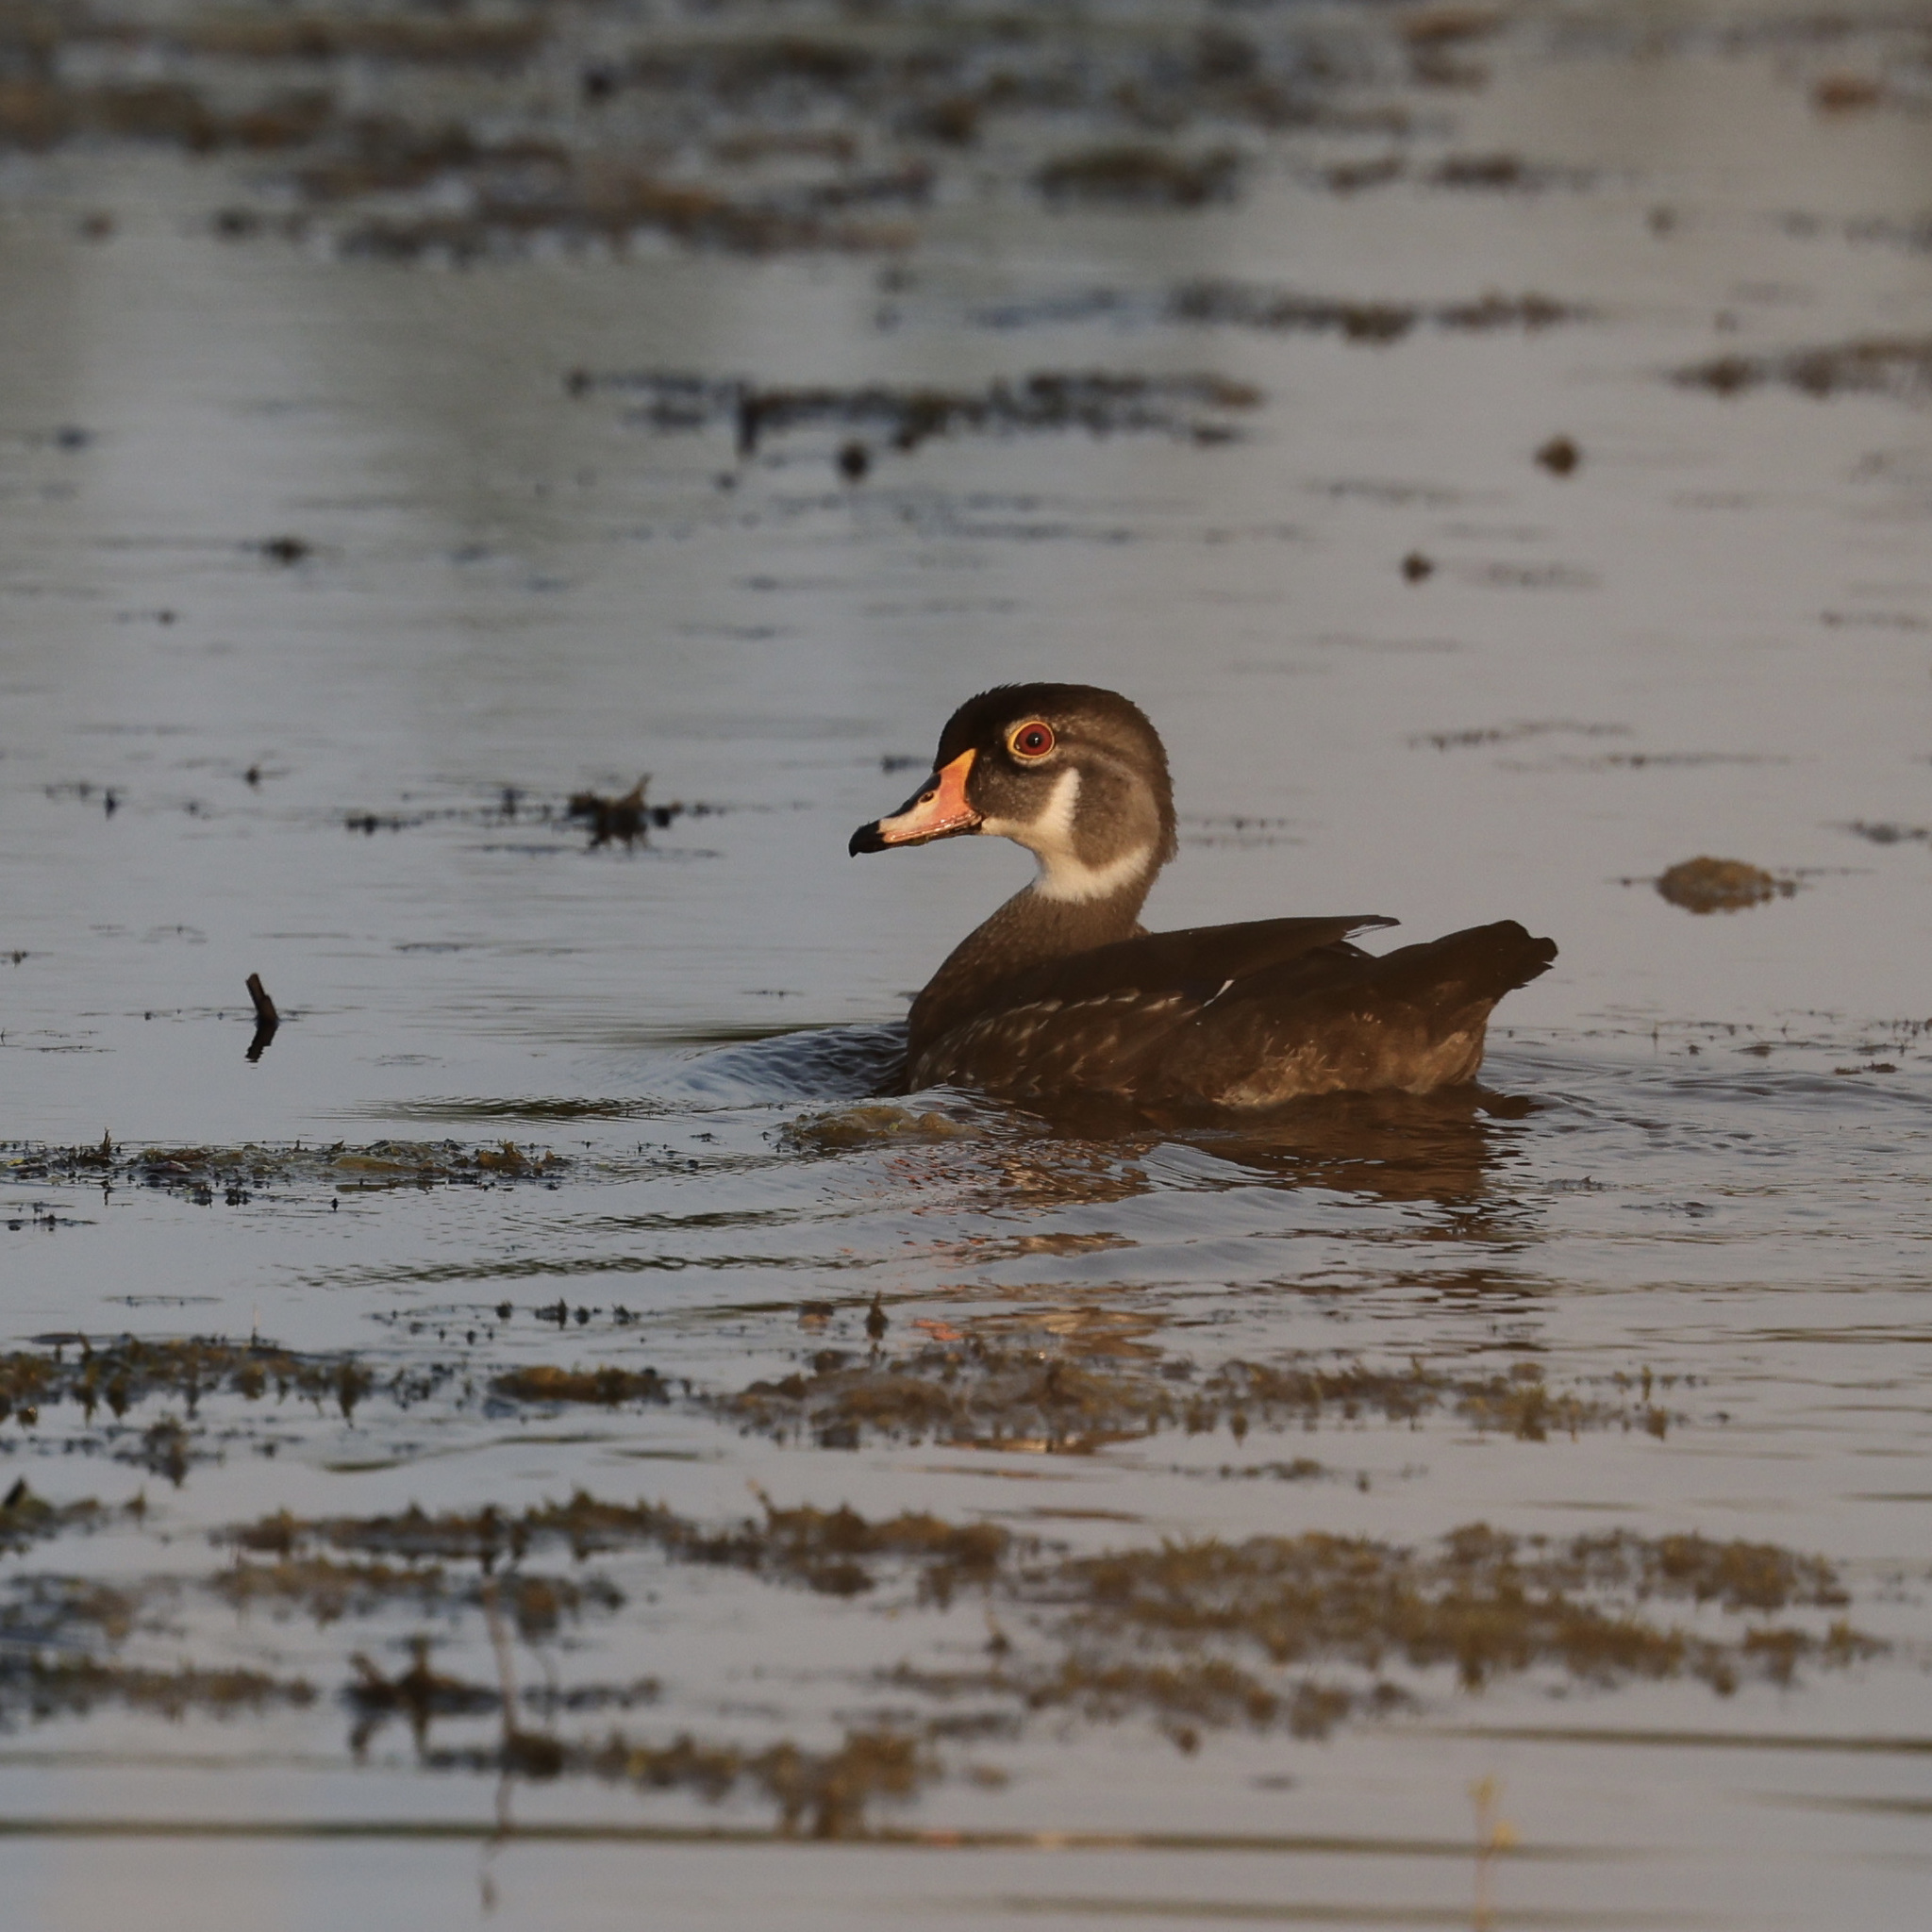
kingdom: Animalia
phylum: Chordata
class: Aves
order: Anseriformes
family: Anatidae
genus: Aix
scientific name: Aix sponsa
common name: Wood duck
